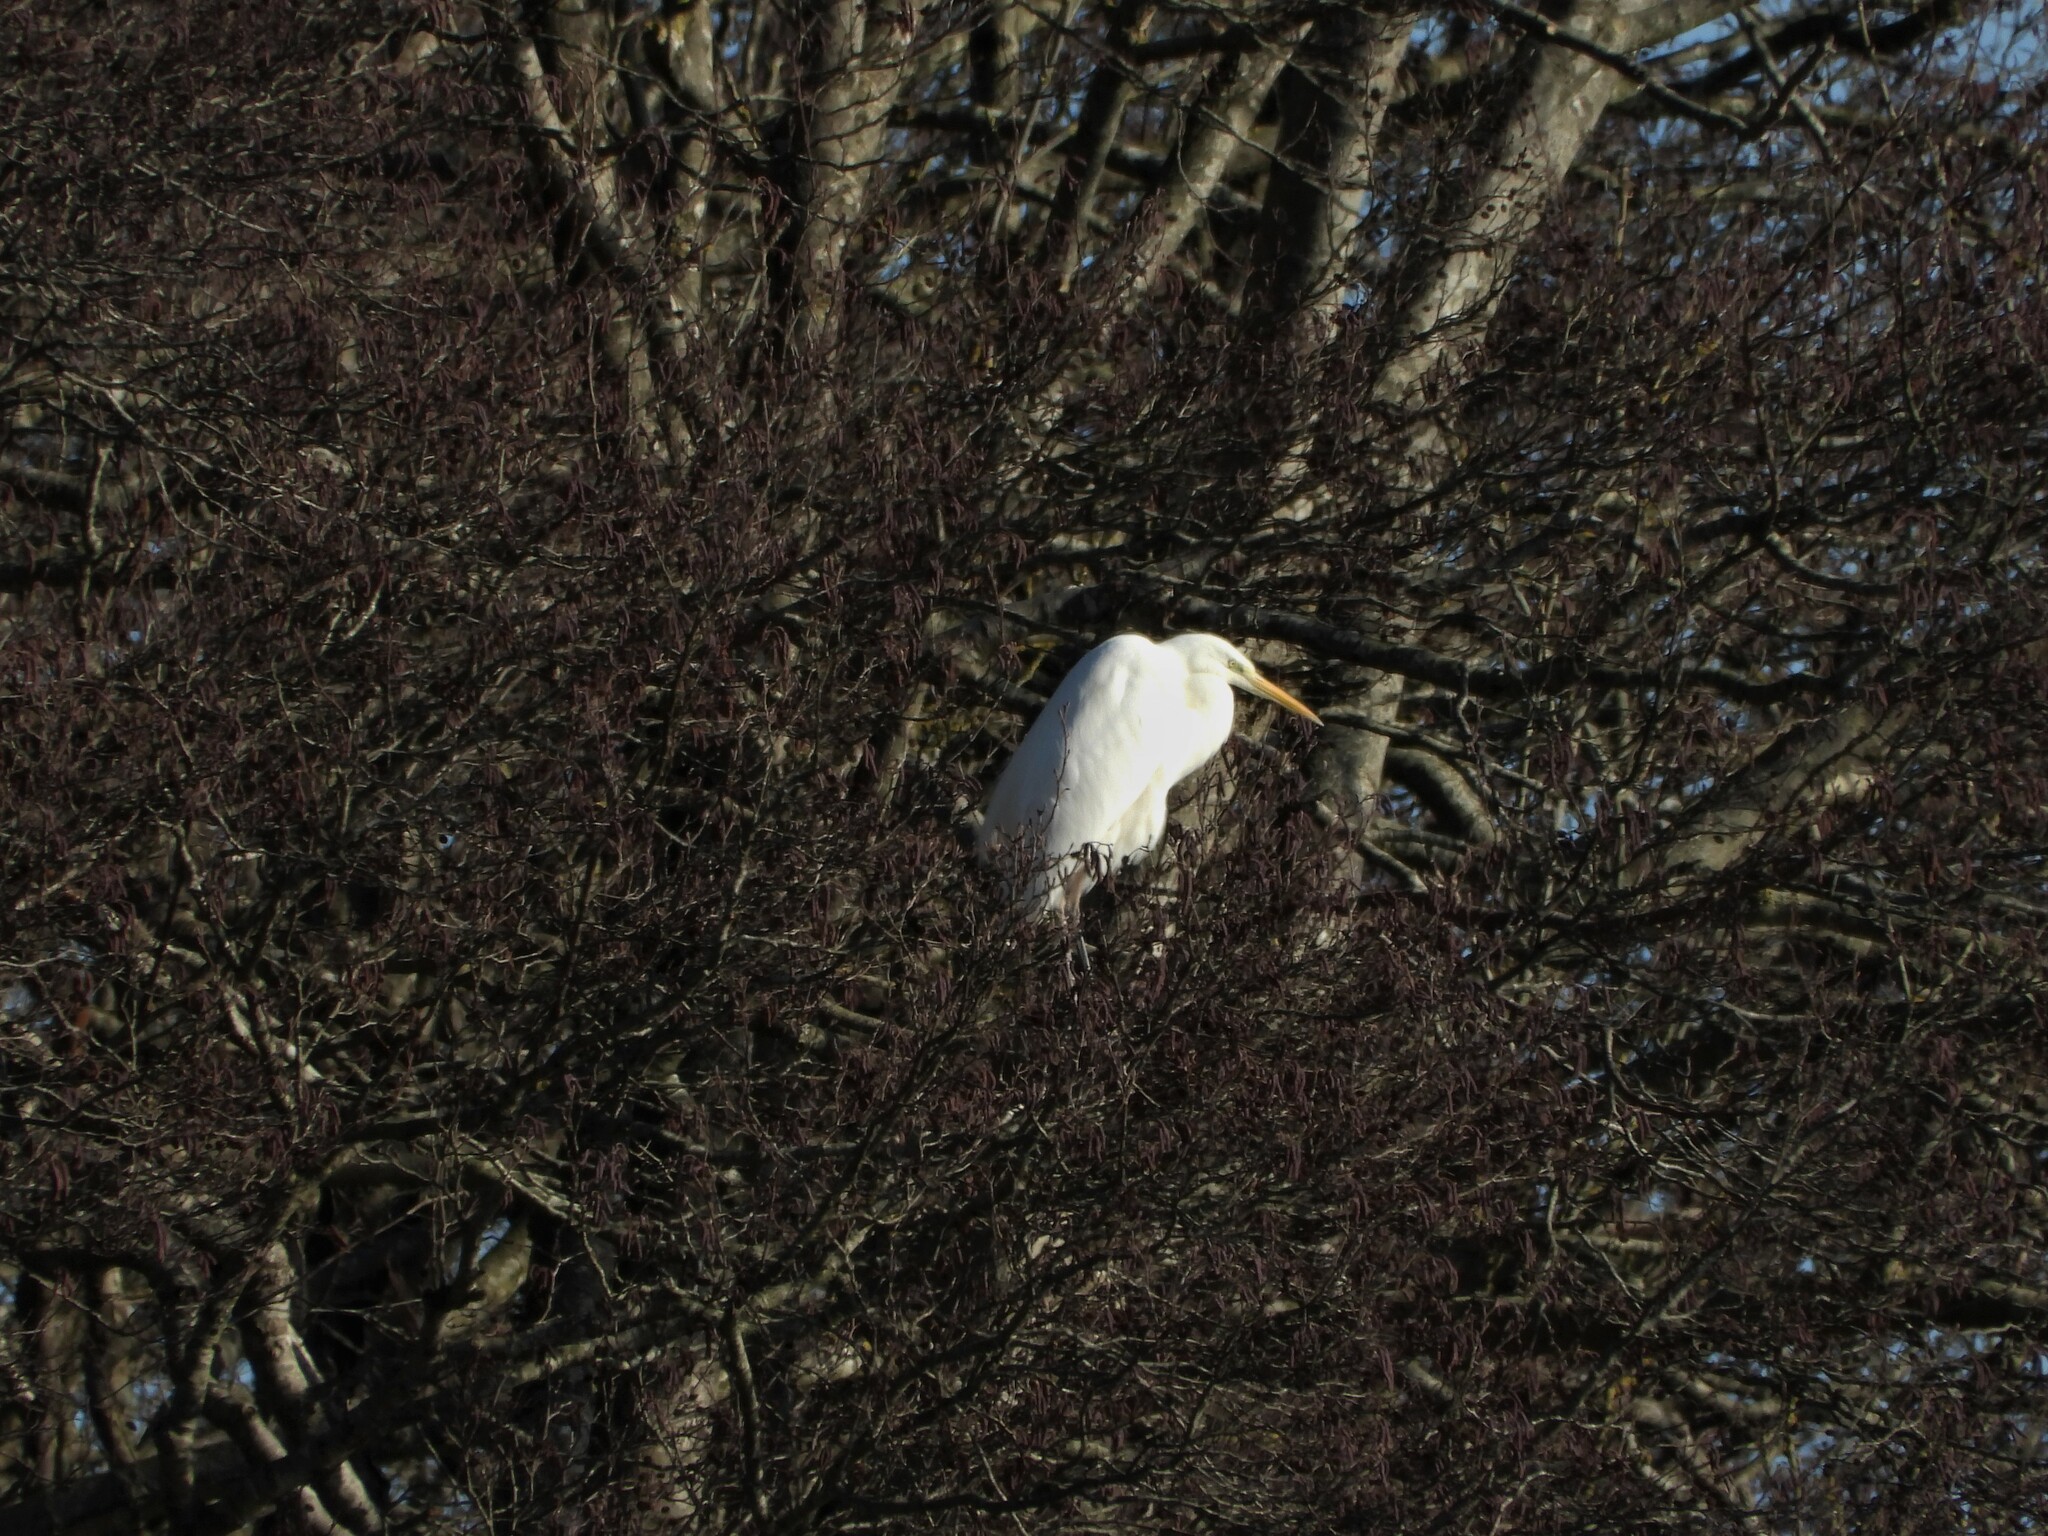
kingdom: Animalia
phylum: Chordata
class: Aves
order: Pelecaniformes
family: Ardeidae
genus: Ardea
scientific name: Ardea alba
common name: Great egret
